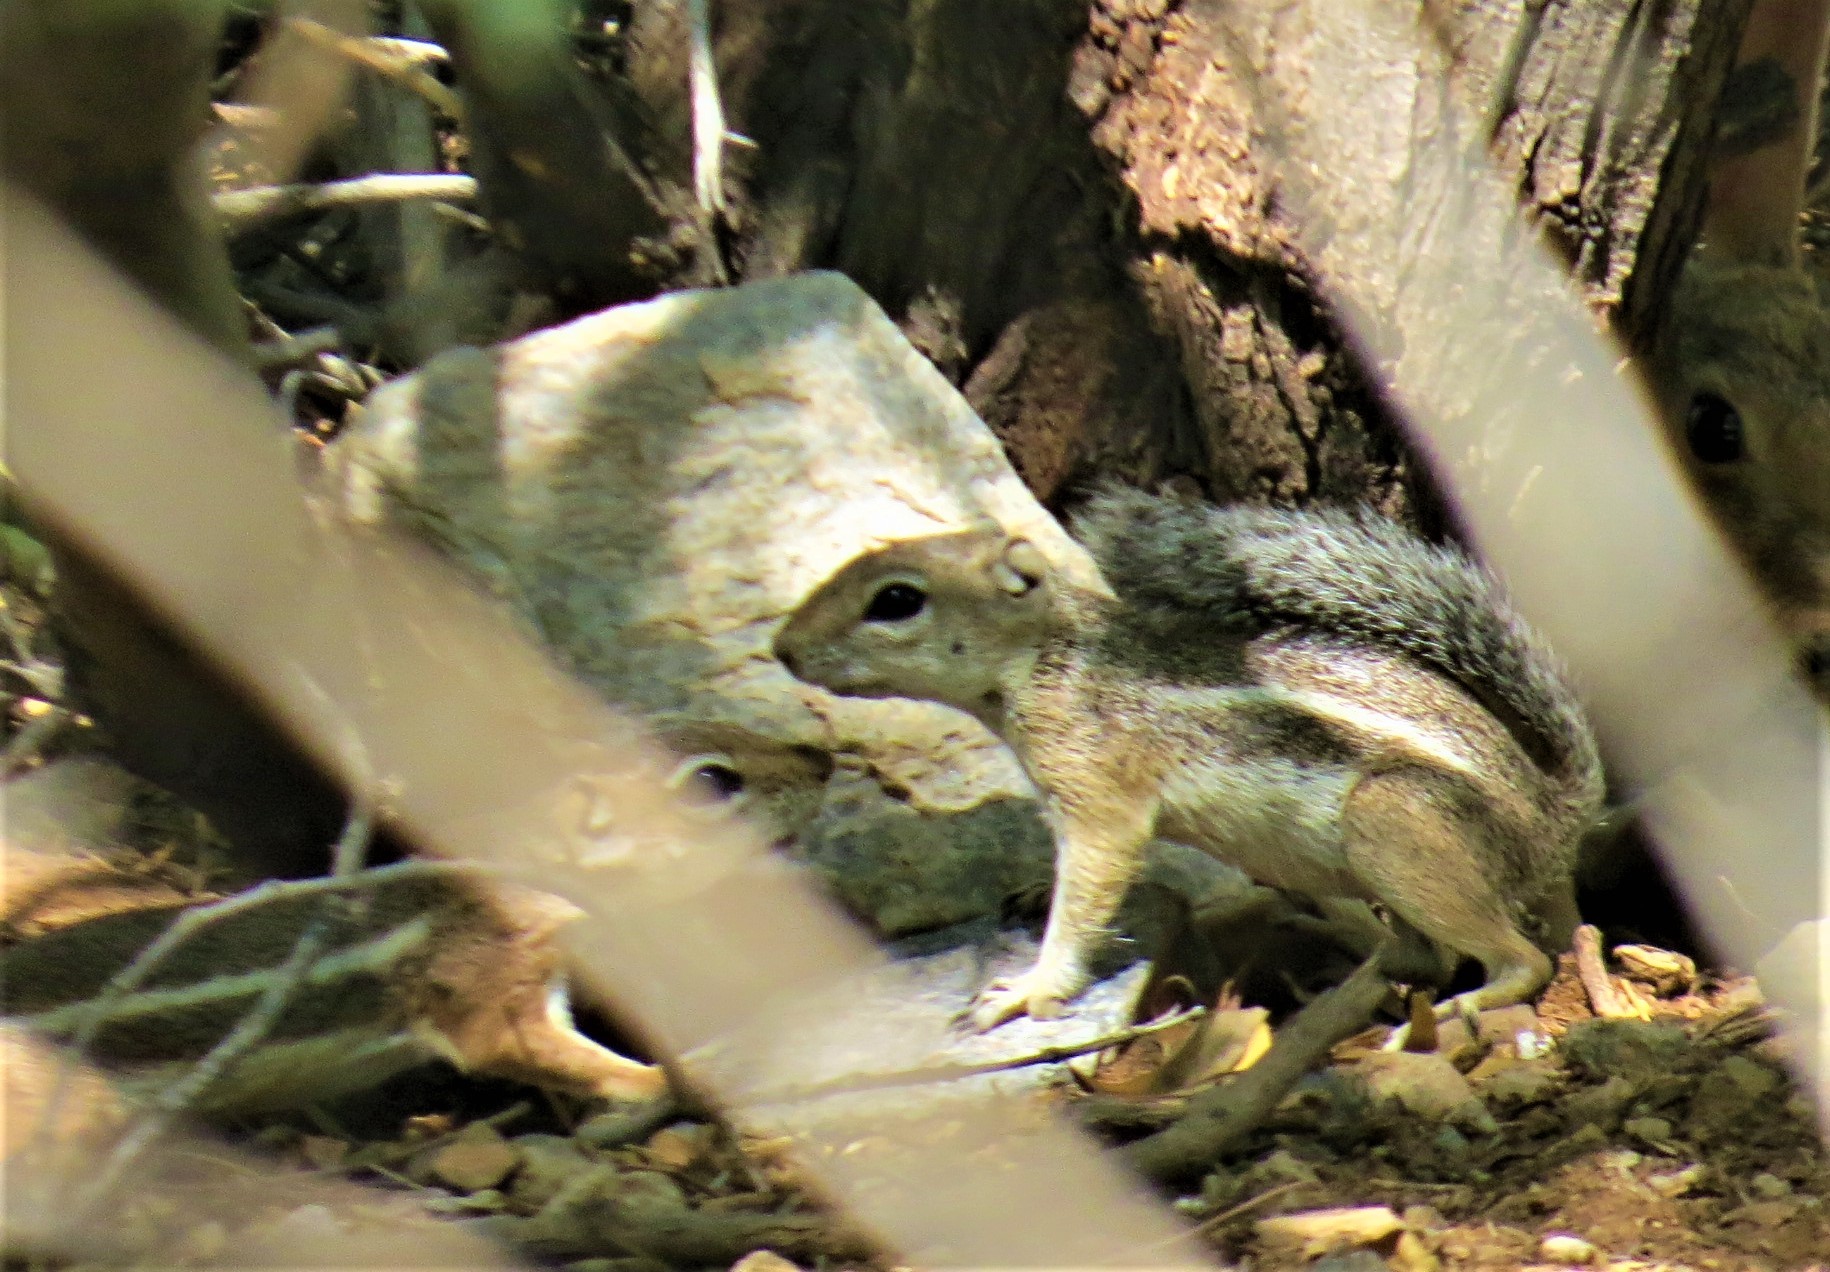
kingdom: Animalia
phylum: Chordata
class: Mammalia
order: Rodentia
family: Sciuridae
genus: Ammospermophilus
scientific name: Ammospermophilus harrisii
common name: Harris's antelope squirrel
